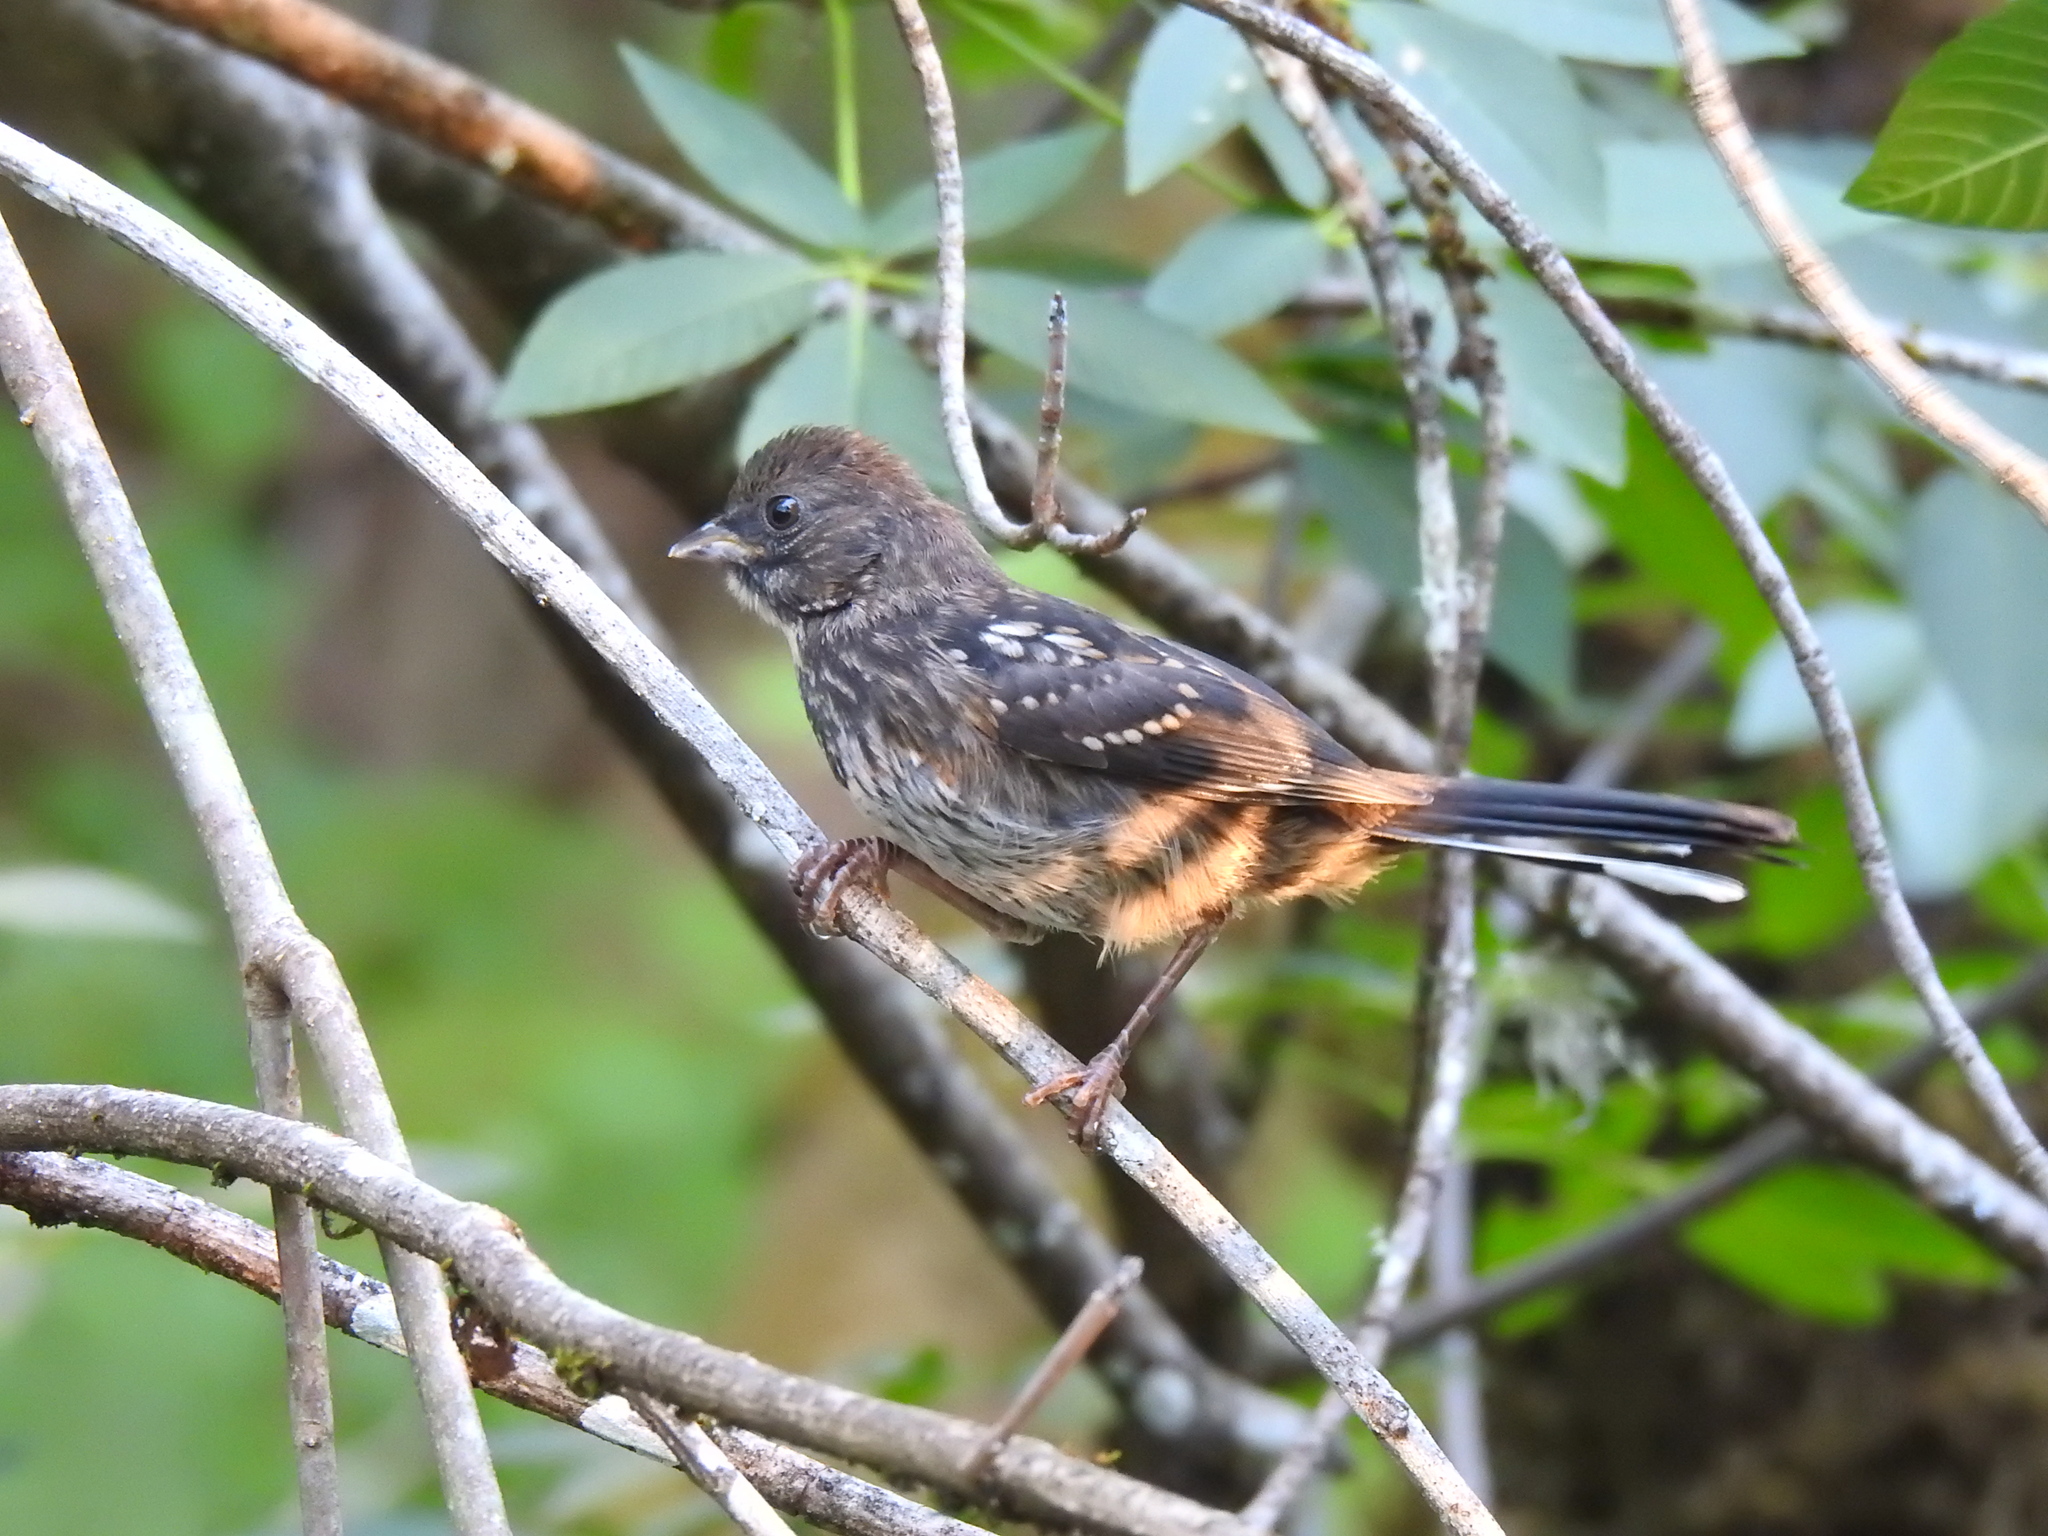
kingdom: Animalia
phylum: Chordata
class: Aves
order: Passeriformes
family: Passerellidae
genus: Pipilo
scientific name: Pipilo maculatus
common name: Spotted towhee
